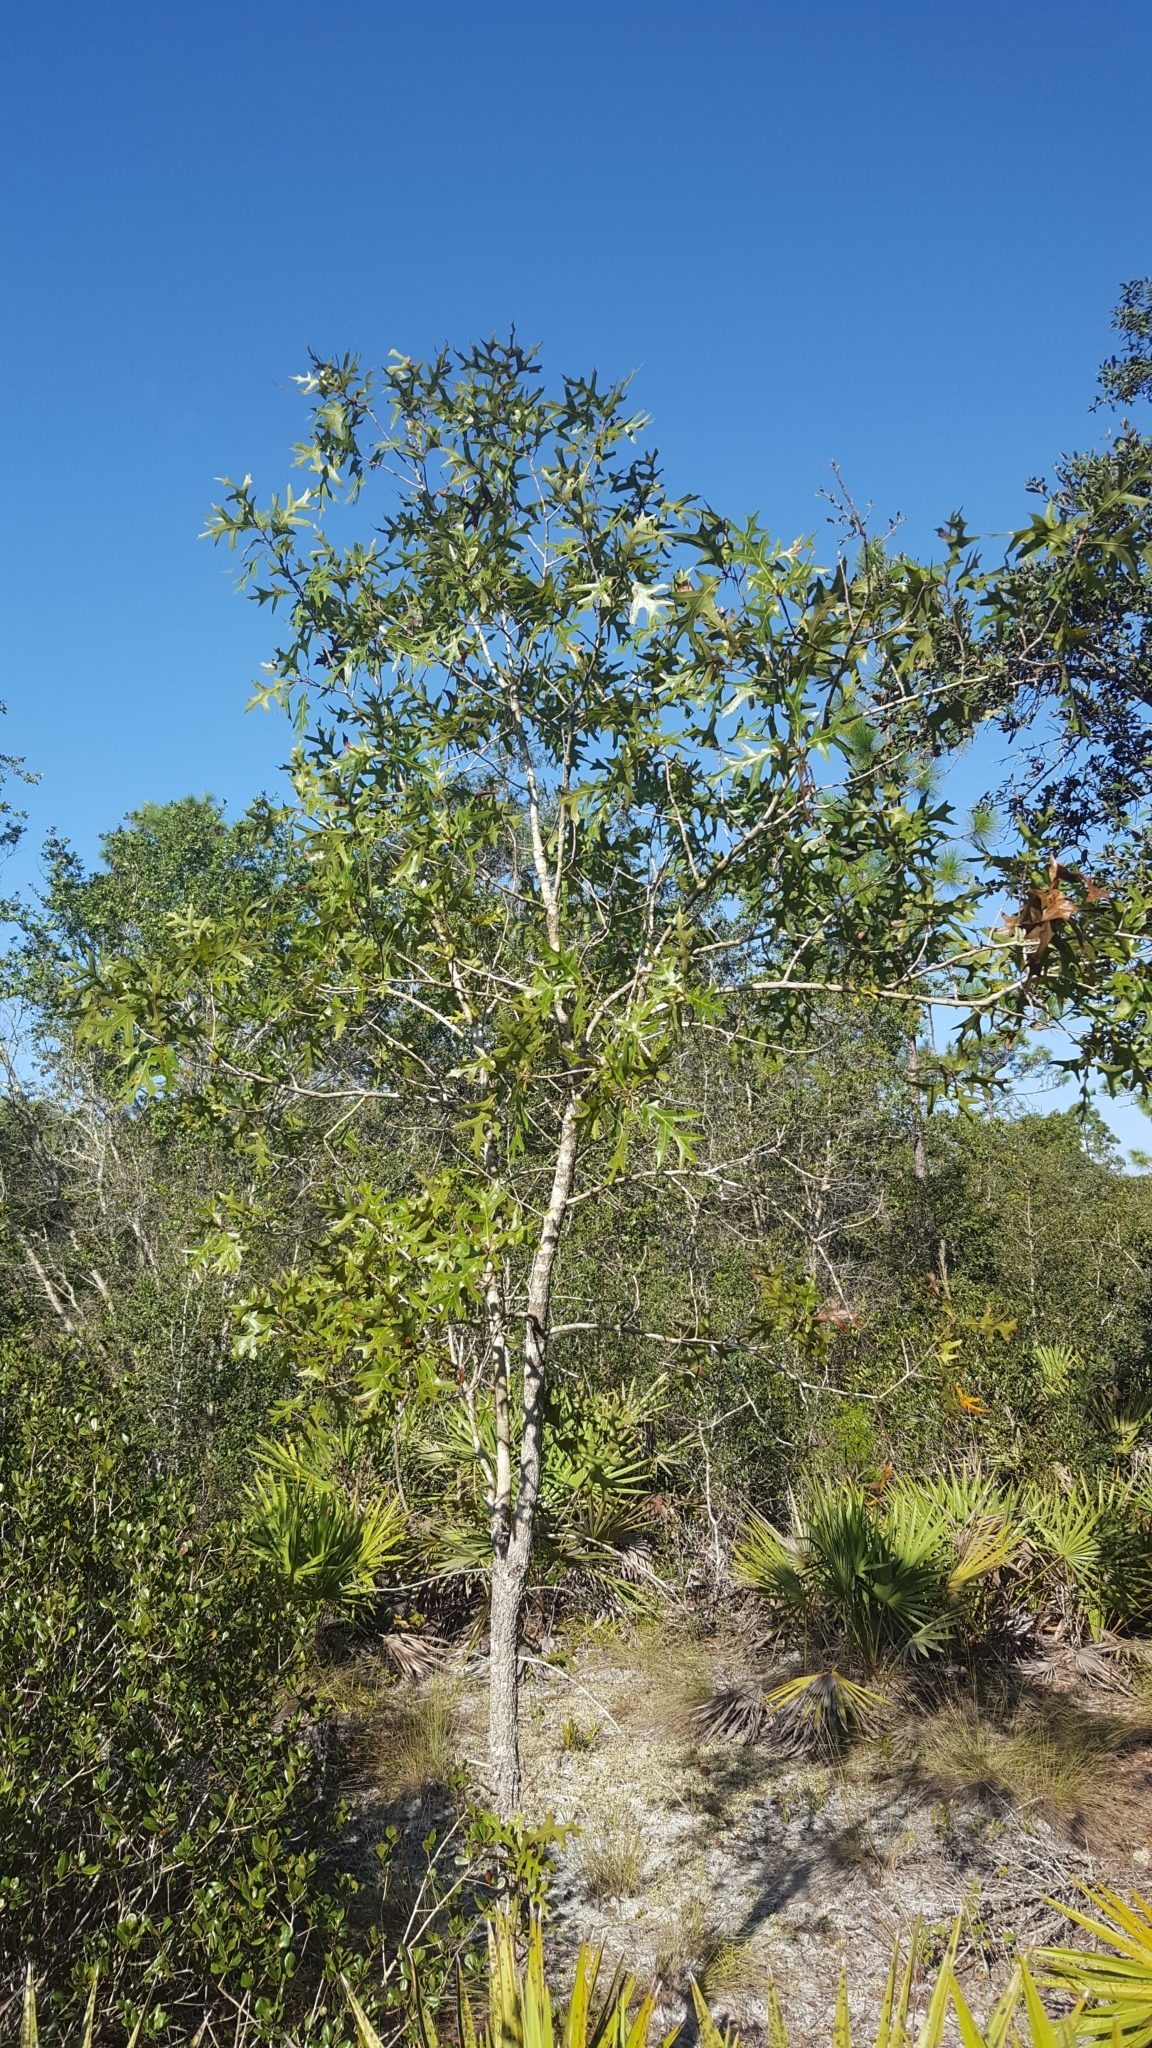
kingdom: Plantae
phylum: Tracheophyta
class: Magnoliopsida
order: Fagales
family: Fagaceae
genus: Quercus
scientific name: Quercus laevis
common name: Turkey oak
